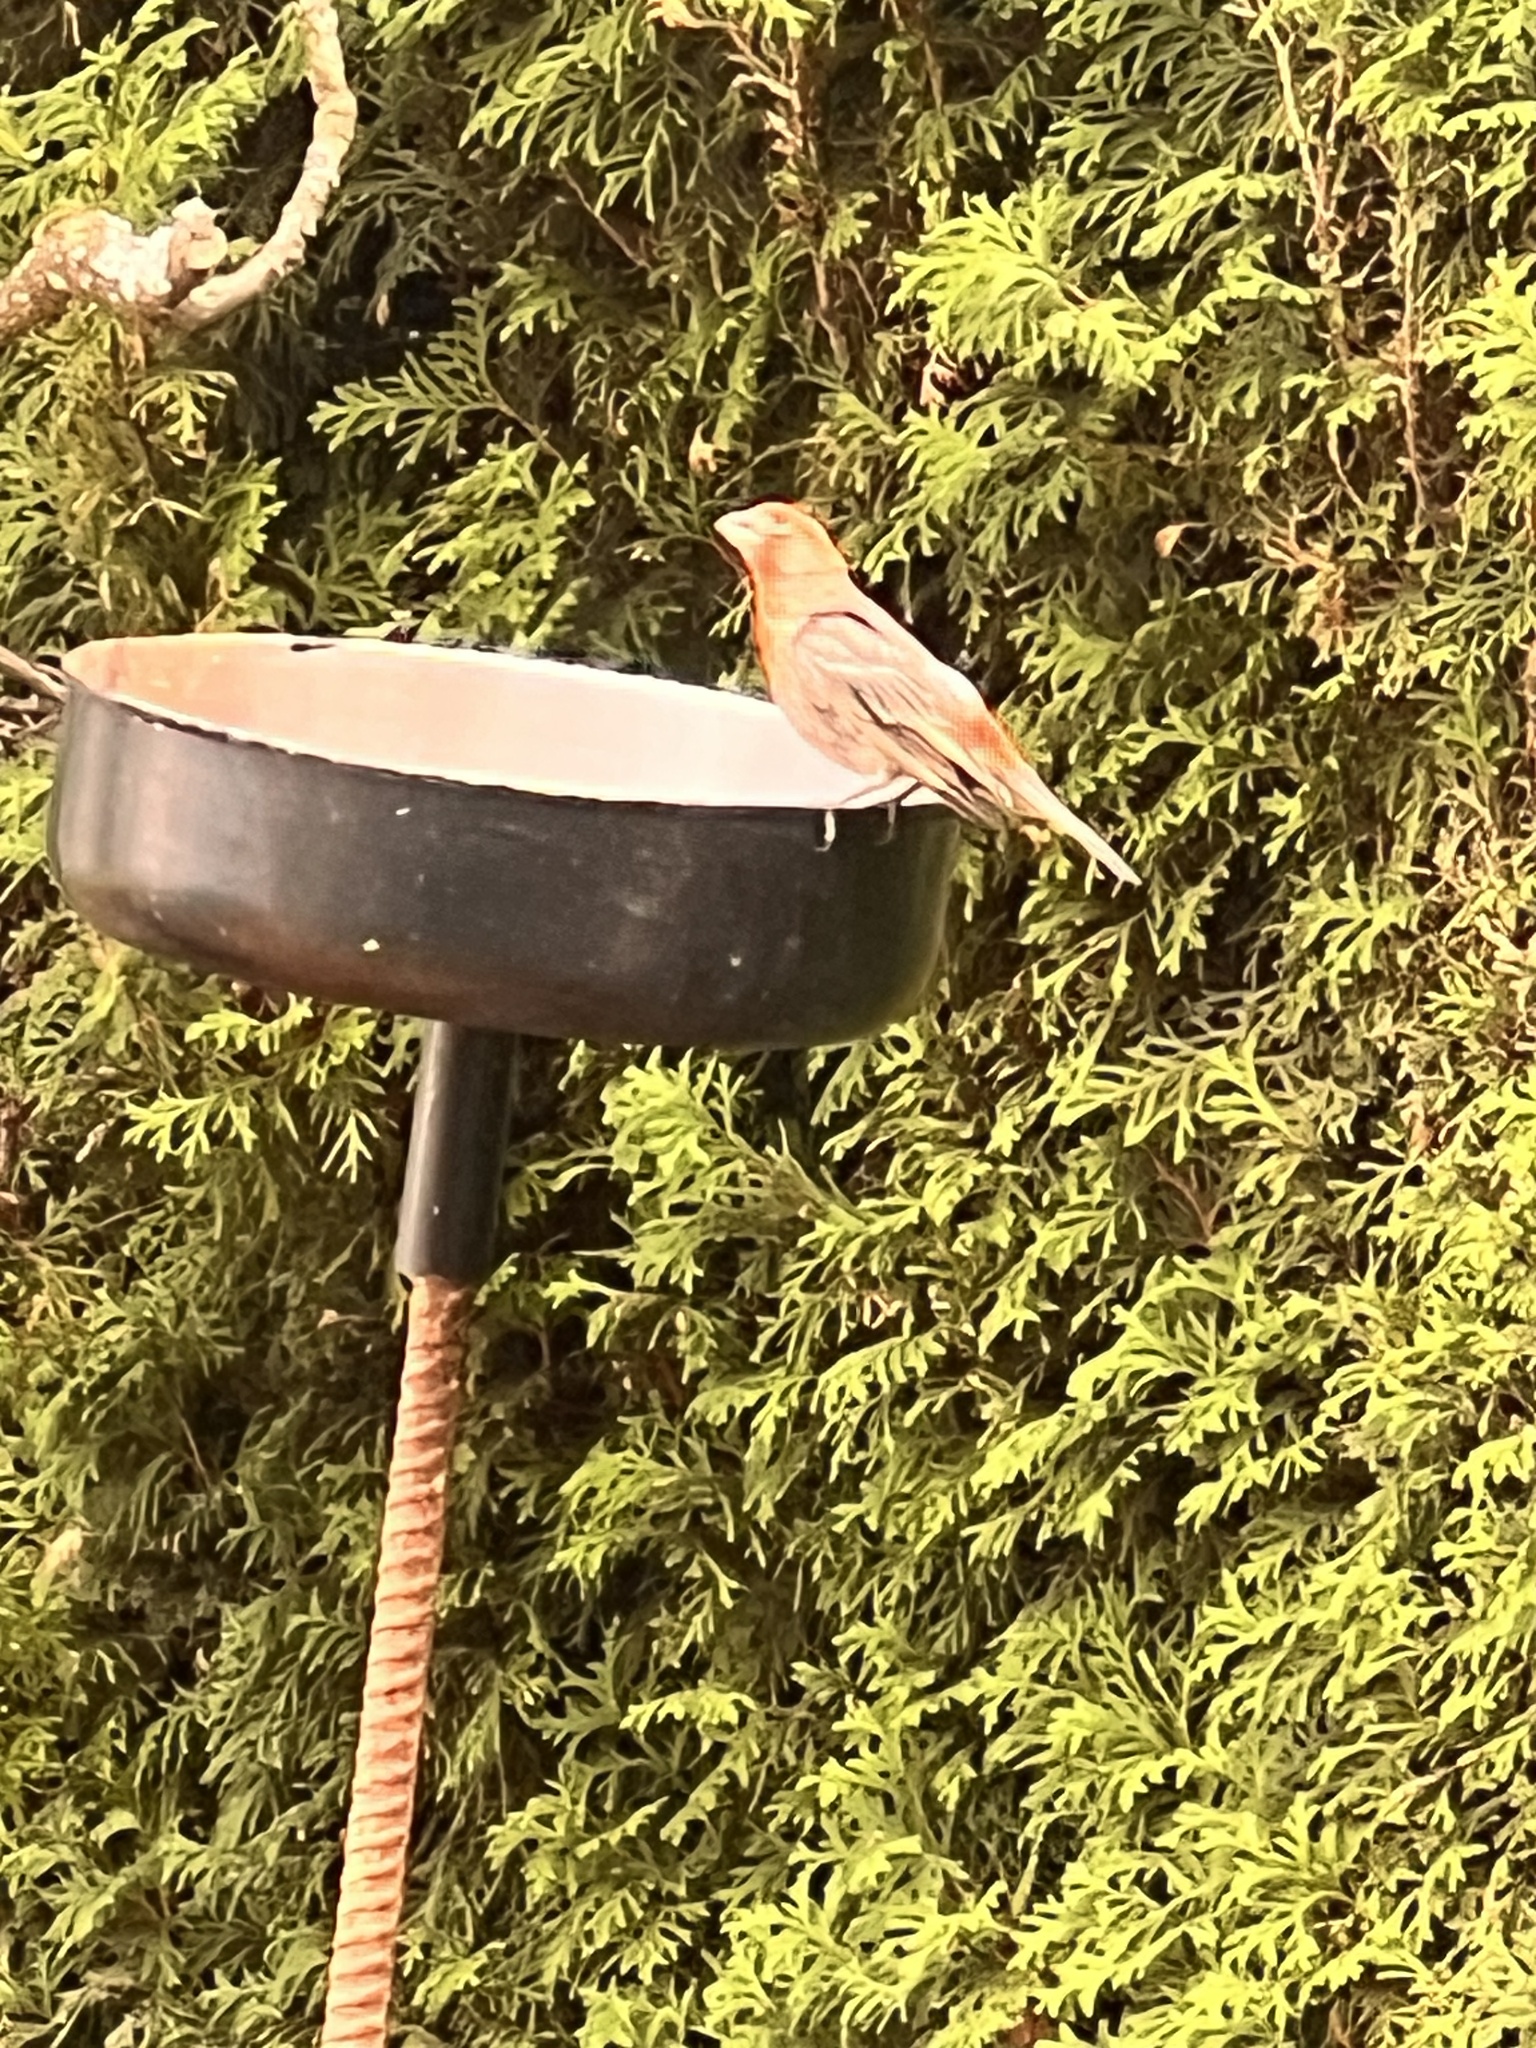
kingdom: Animalia
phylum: Chordata
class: Aves
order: Passeriformes
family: Fringillidae
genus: Haemorhous
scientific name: Haemorhous mexicanus
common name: House finch
